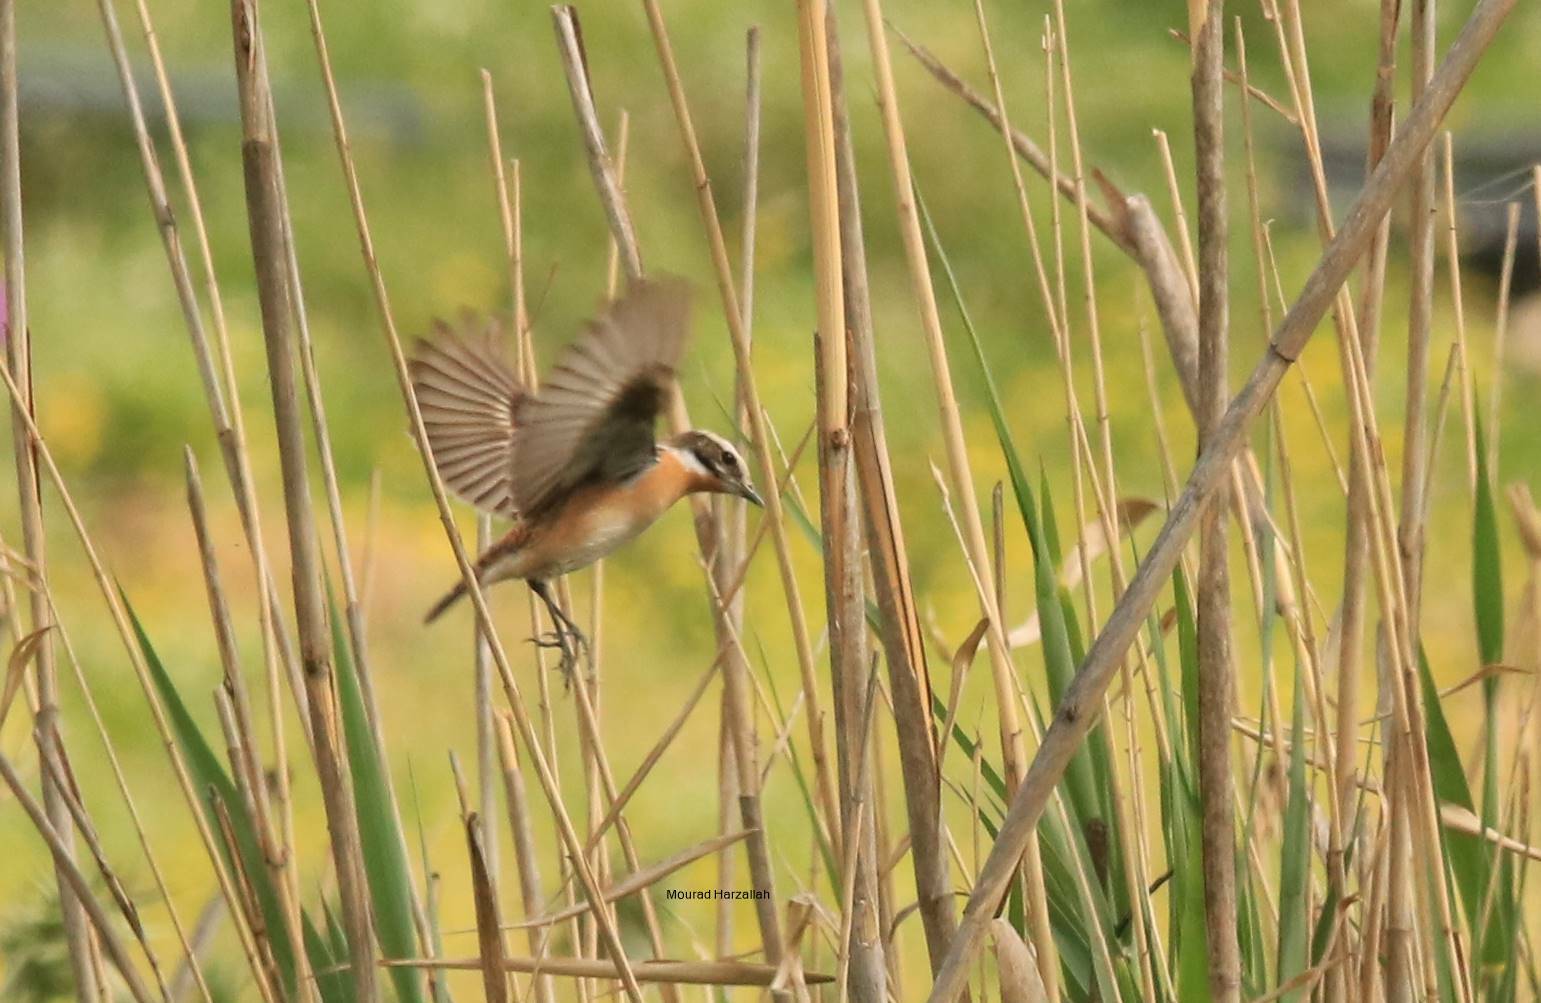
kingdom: Animalia
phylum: Chordata
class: Aves
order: Passeriformes
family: Muscicapidae
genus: Saxicola
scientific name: Saxicola rubetra
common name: Whinchat
